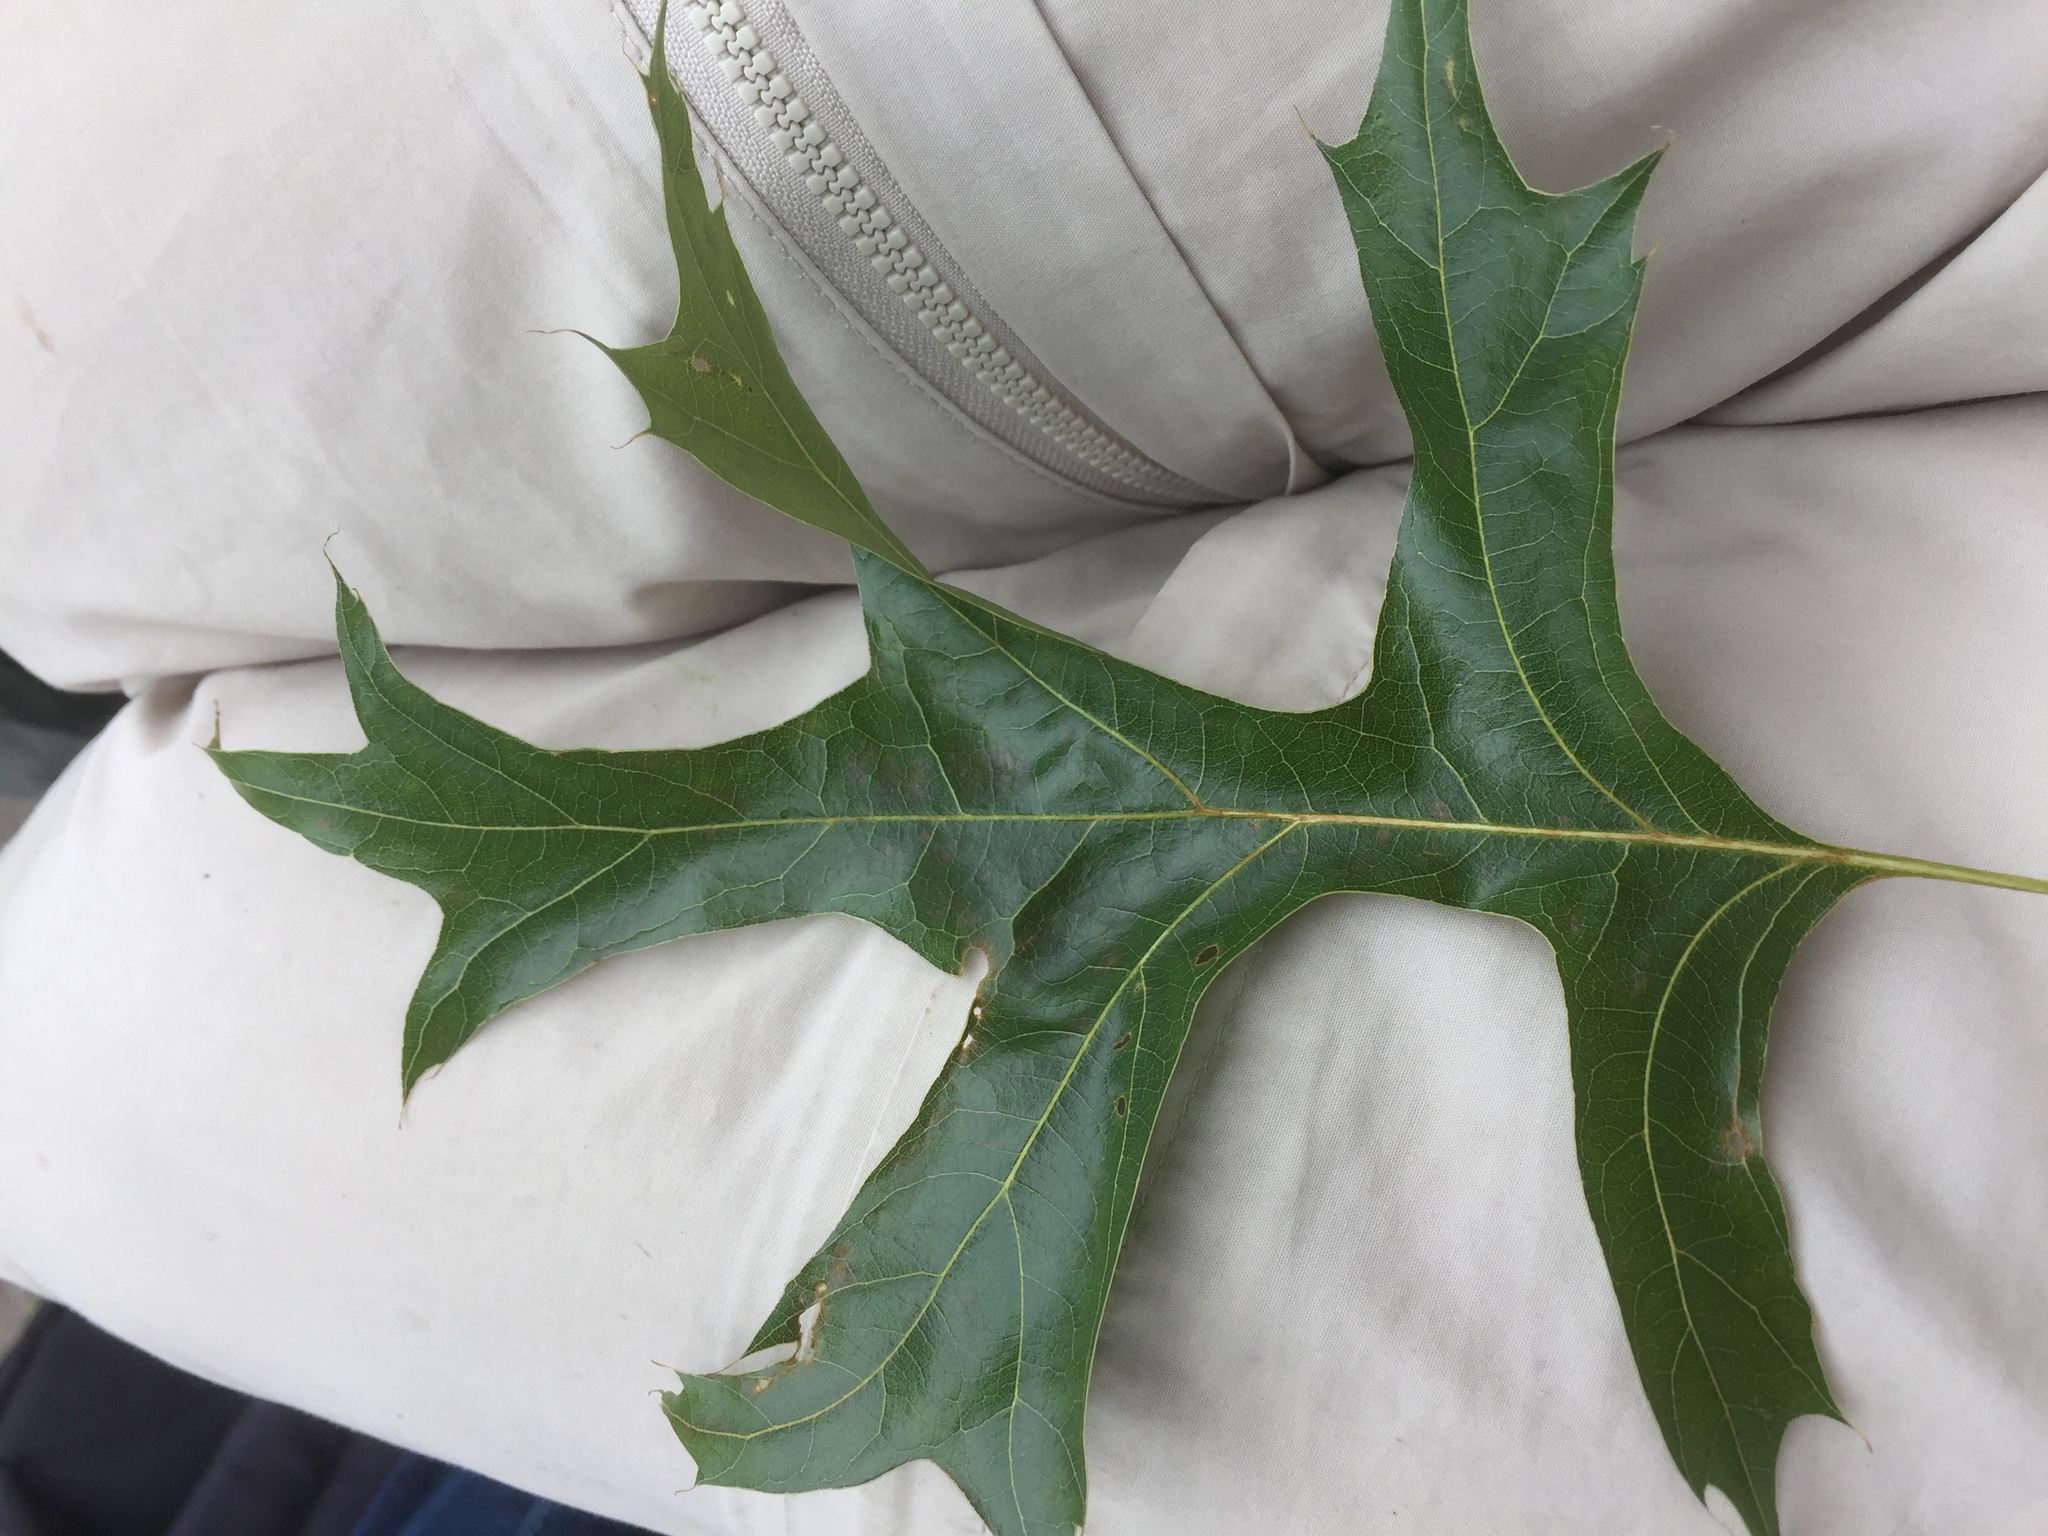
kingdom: Plantae
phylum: Tracheophyta
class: Magnoliopsida
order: Fagales
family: Fagaceae
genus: Quercus
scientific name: Quercus palustris
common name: Pin oak
